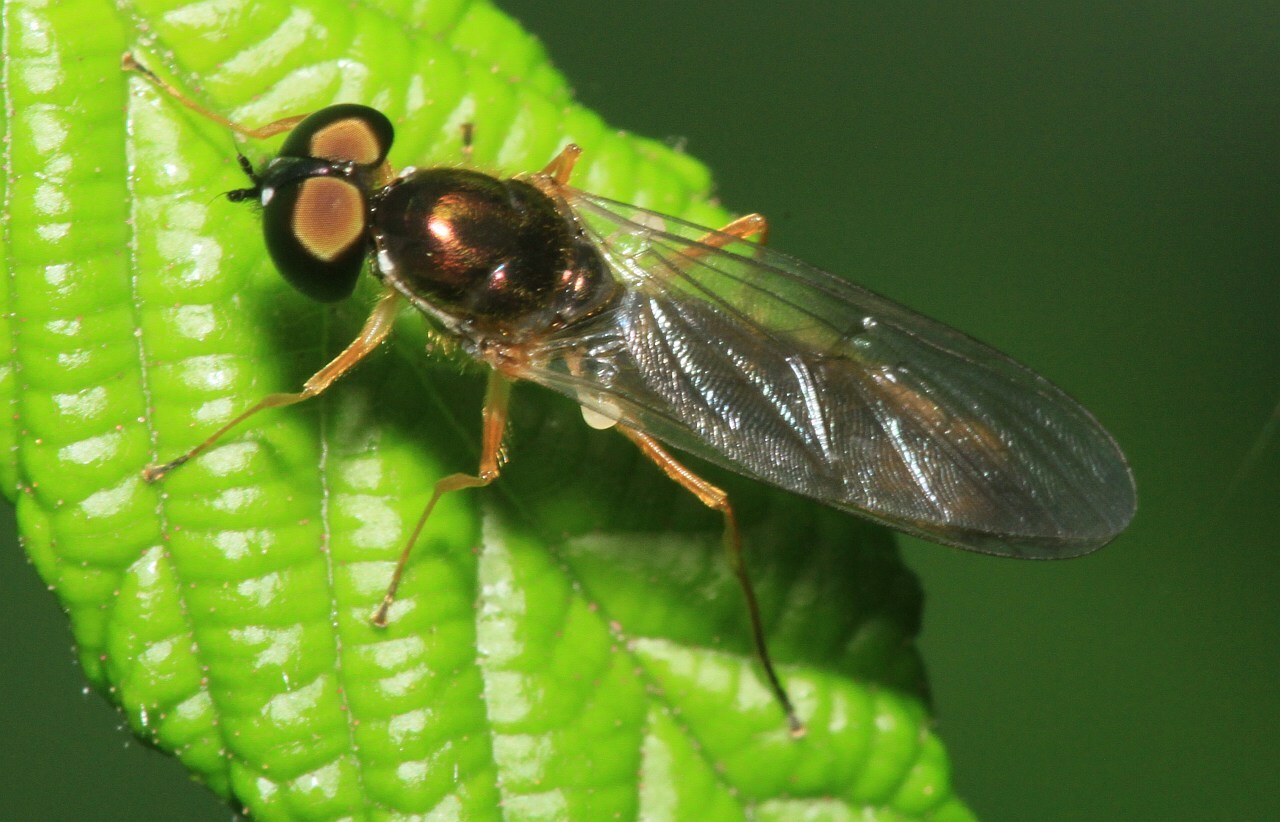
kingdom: Animalia
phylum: Arthropoda
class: Insecta
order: Diptera
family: Stratiomyidae
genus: Sargus
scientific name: Sargus bipunctatus
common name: Twin-spot centurion
